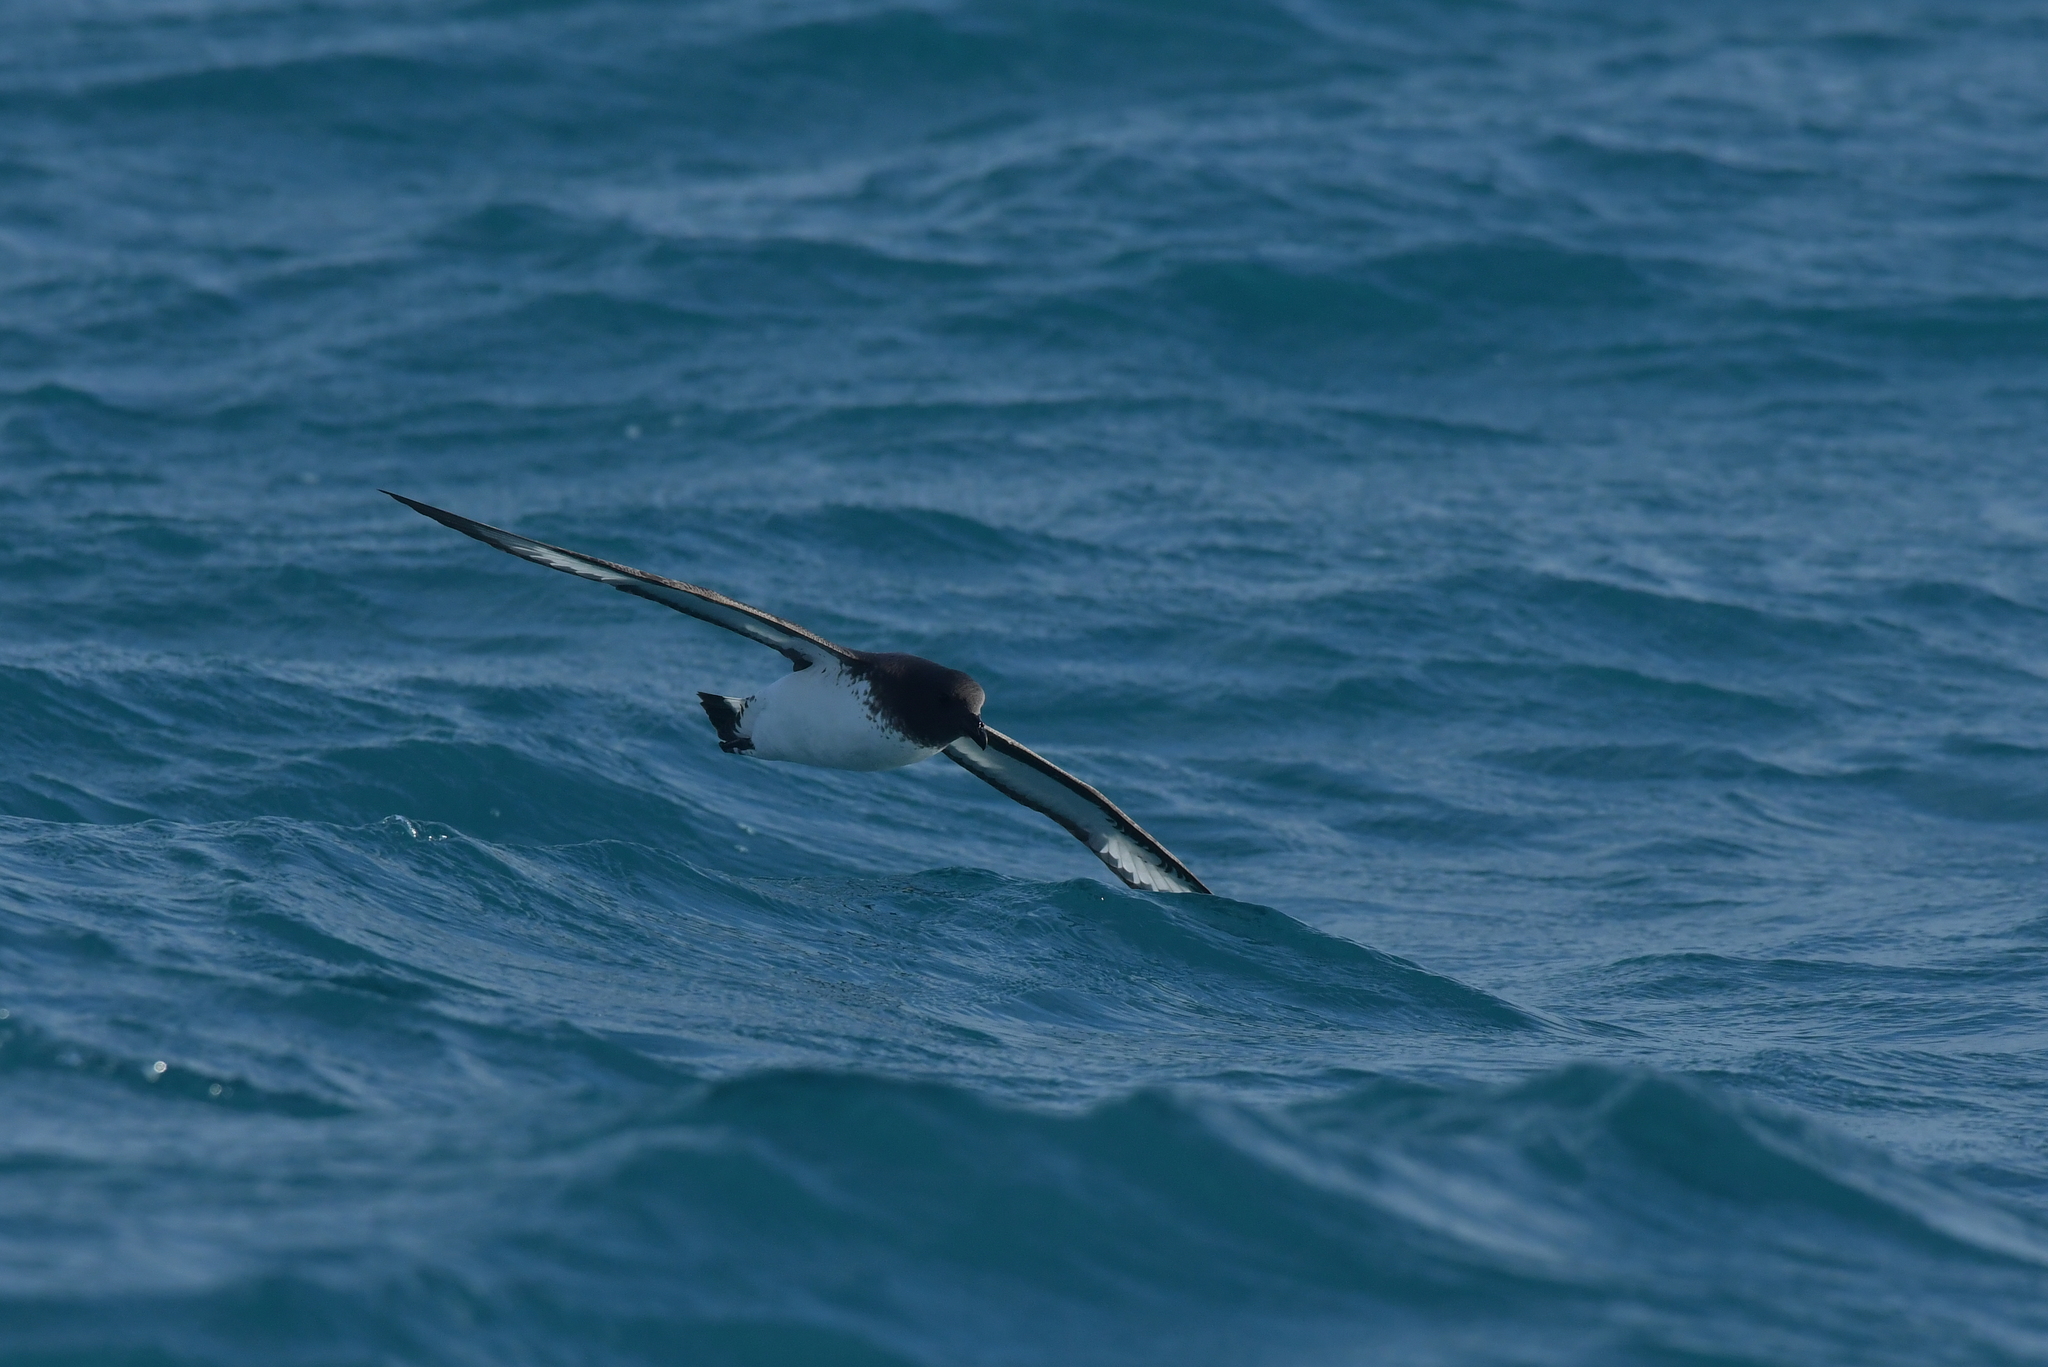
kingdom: Animalia
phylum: Chordata
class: Aves
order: Procellariiformes
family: Procellariidae
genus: Daption
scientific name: Daption capense
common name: Cape petrel
